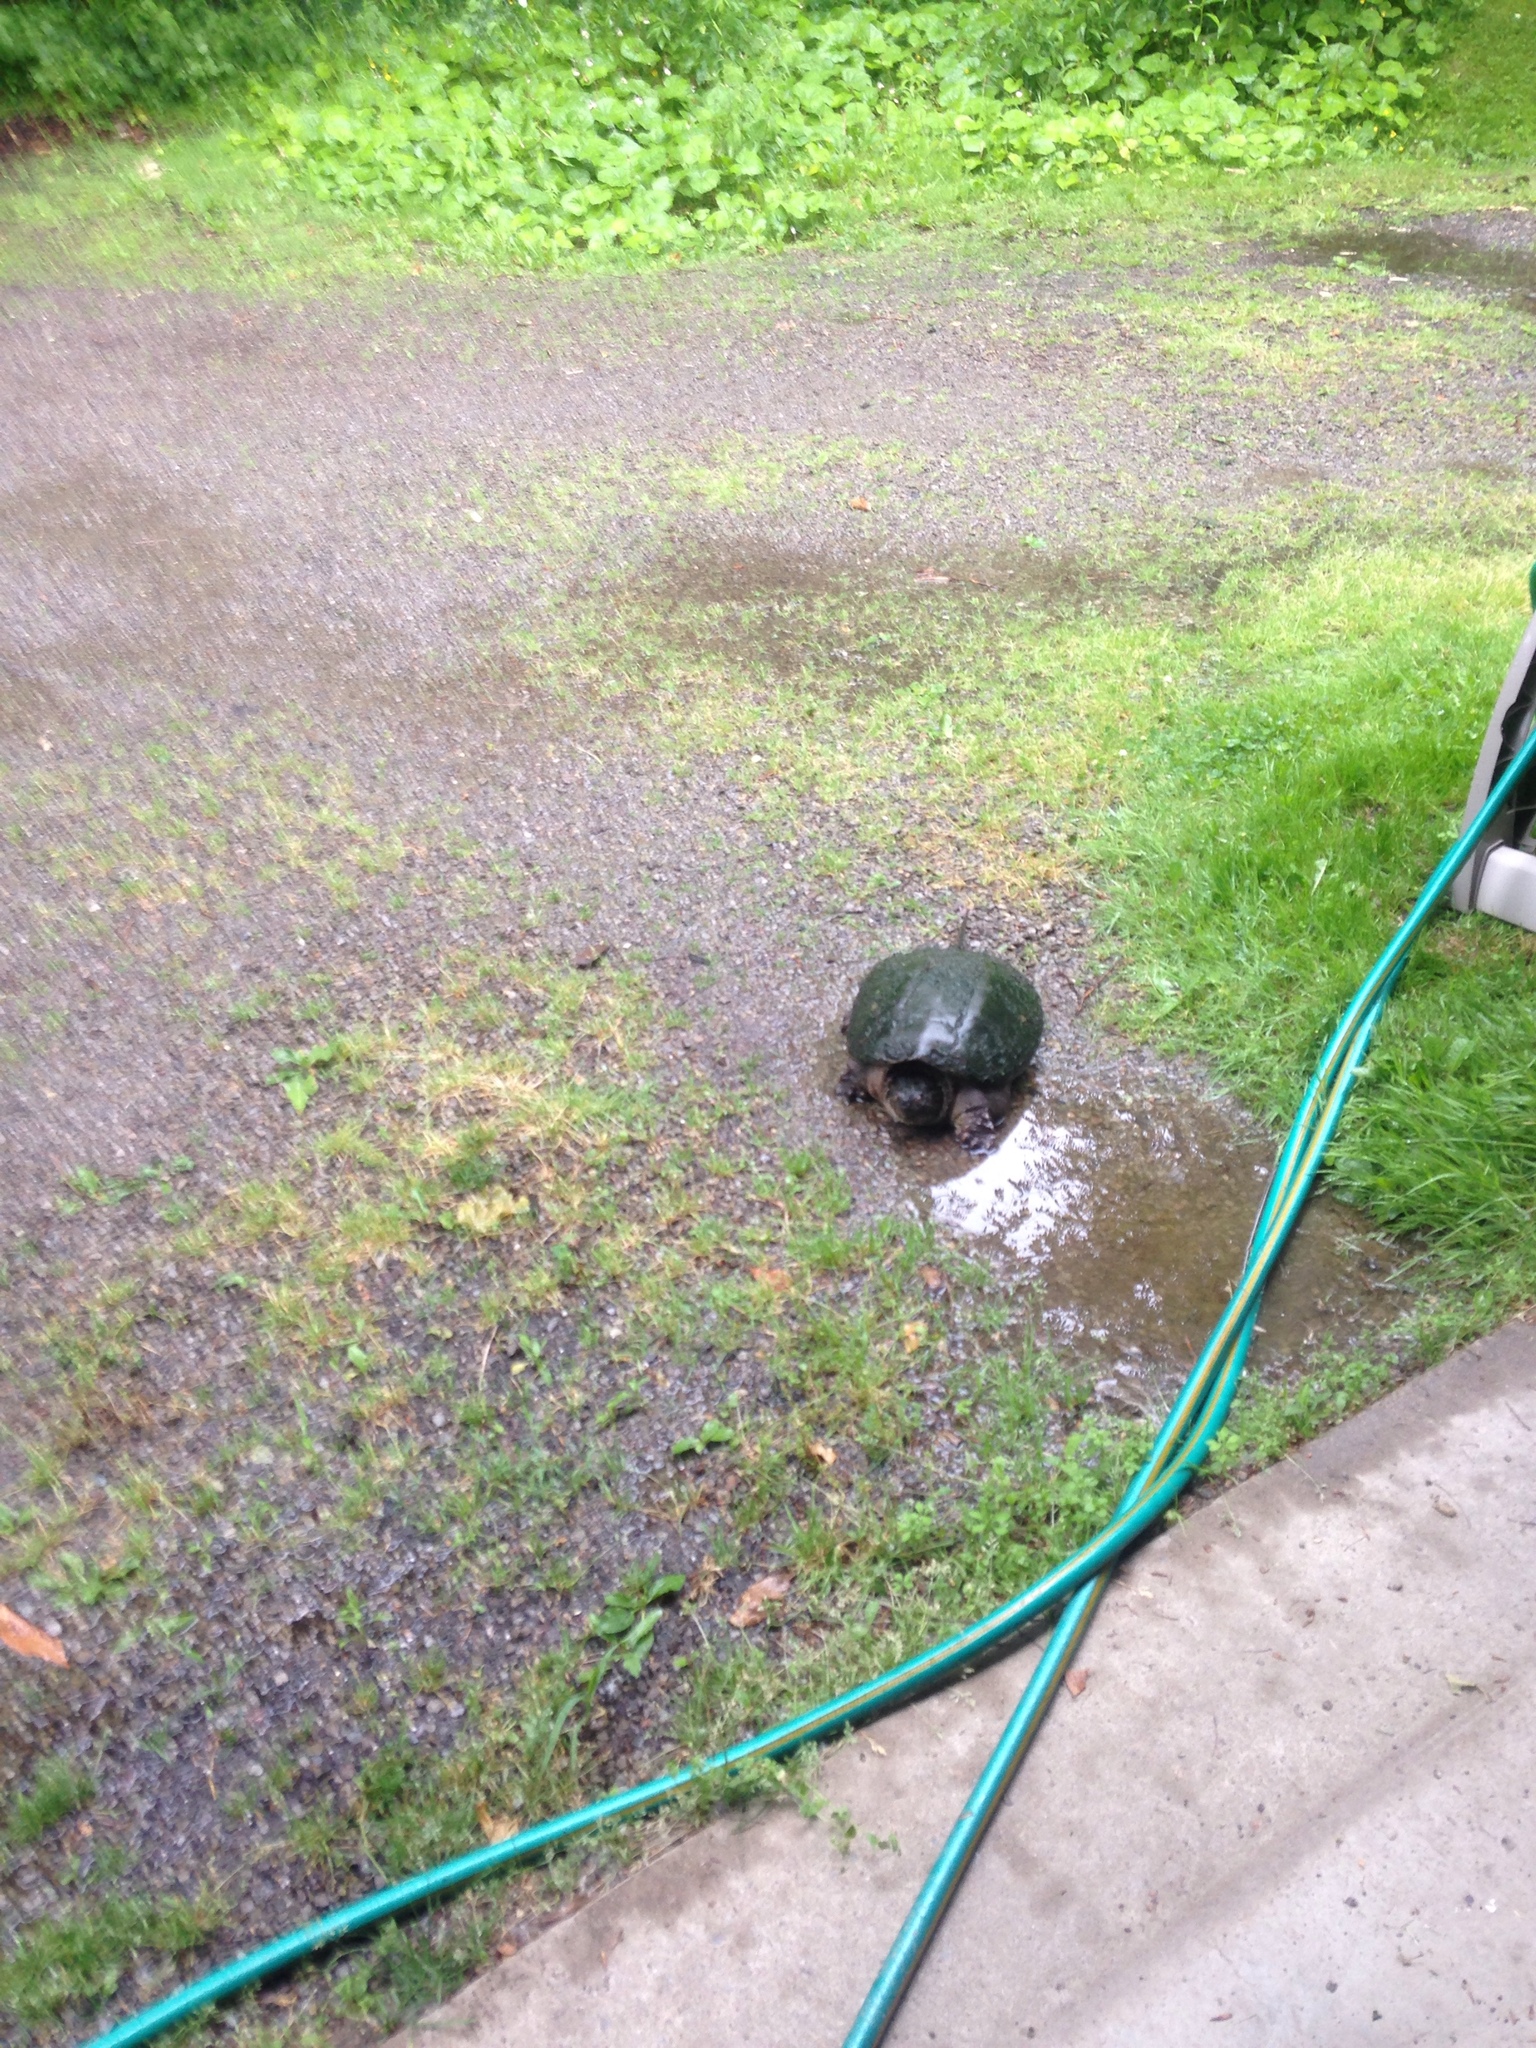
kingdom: Animalia
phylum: Chordata
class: Testudines
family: Chelydridae
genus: Chelydra
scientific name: Chelydra serpentina
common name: Common snapping turtle
